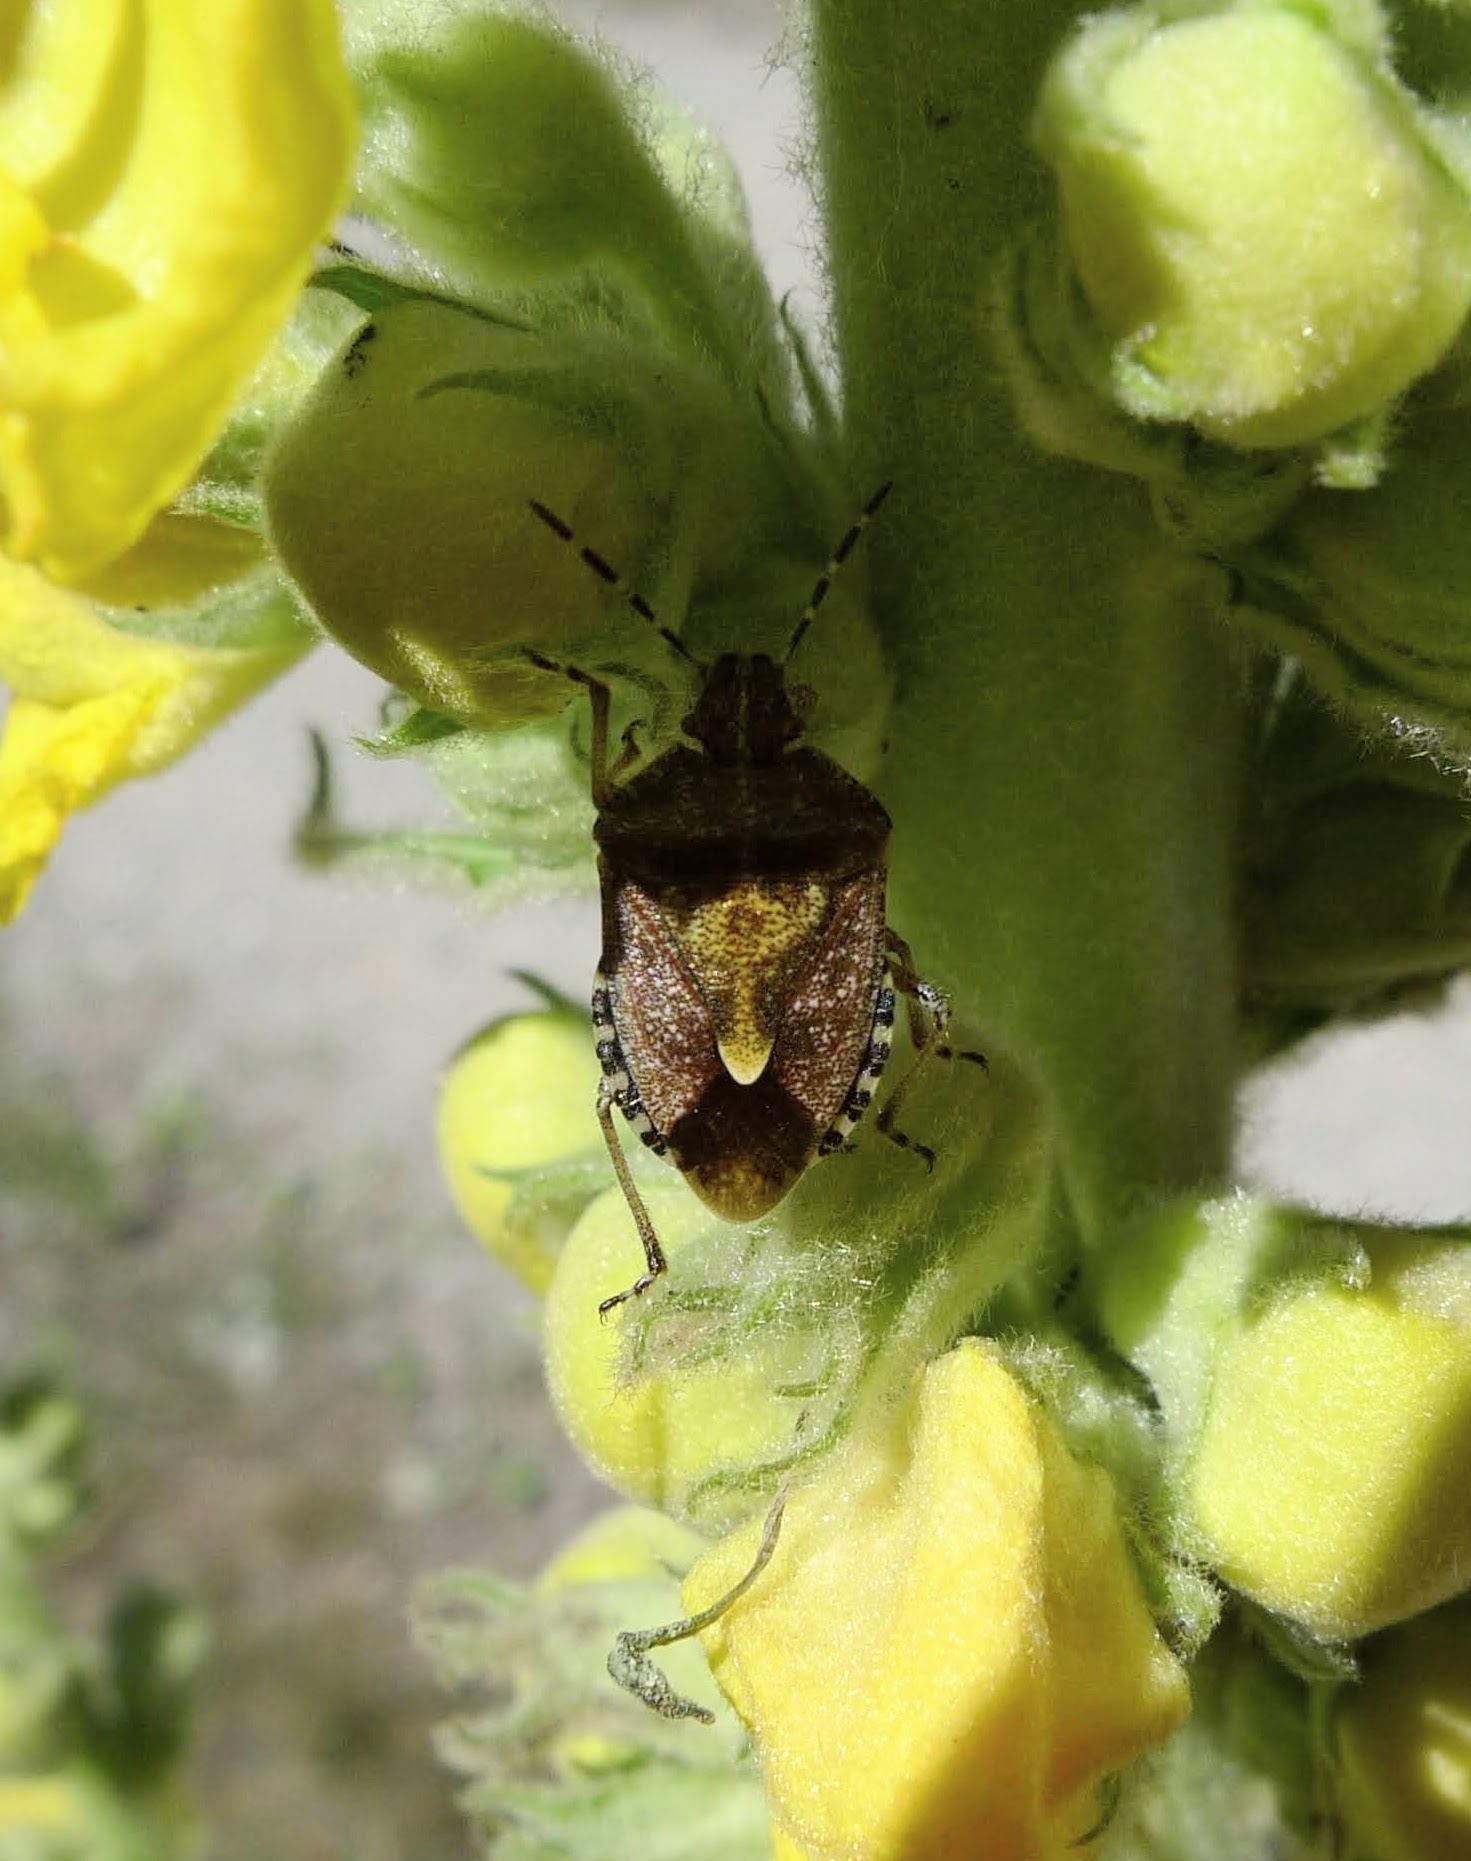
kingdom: Animalia
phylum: Arthropoda
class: Insecta
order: Hemiptera
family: Pentatomidae
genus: Dolycoris
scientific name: Dolycoris baccarum
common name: Sloe bug
